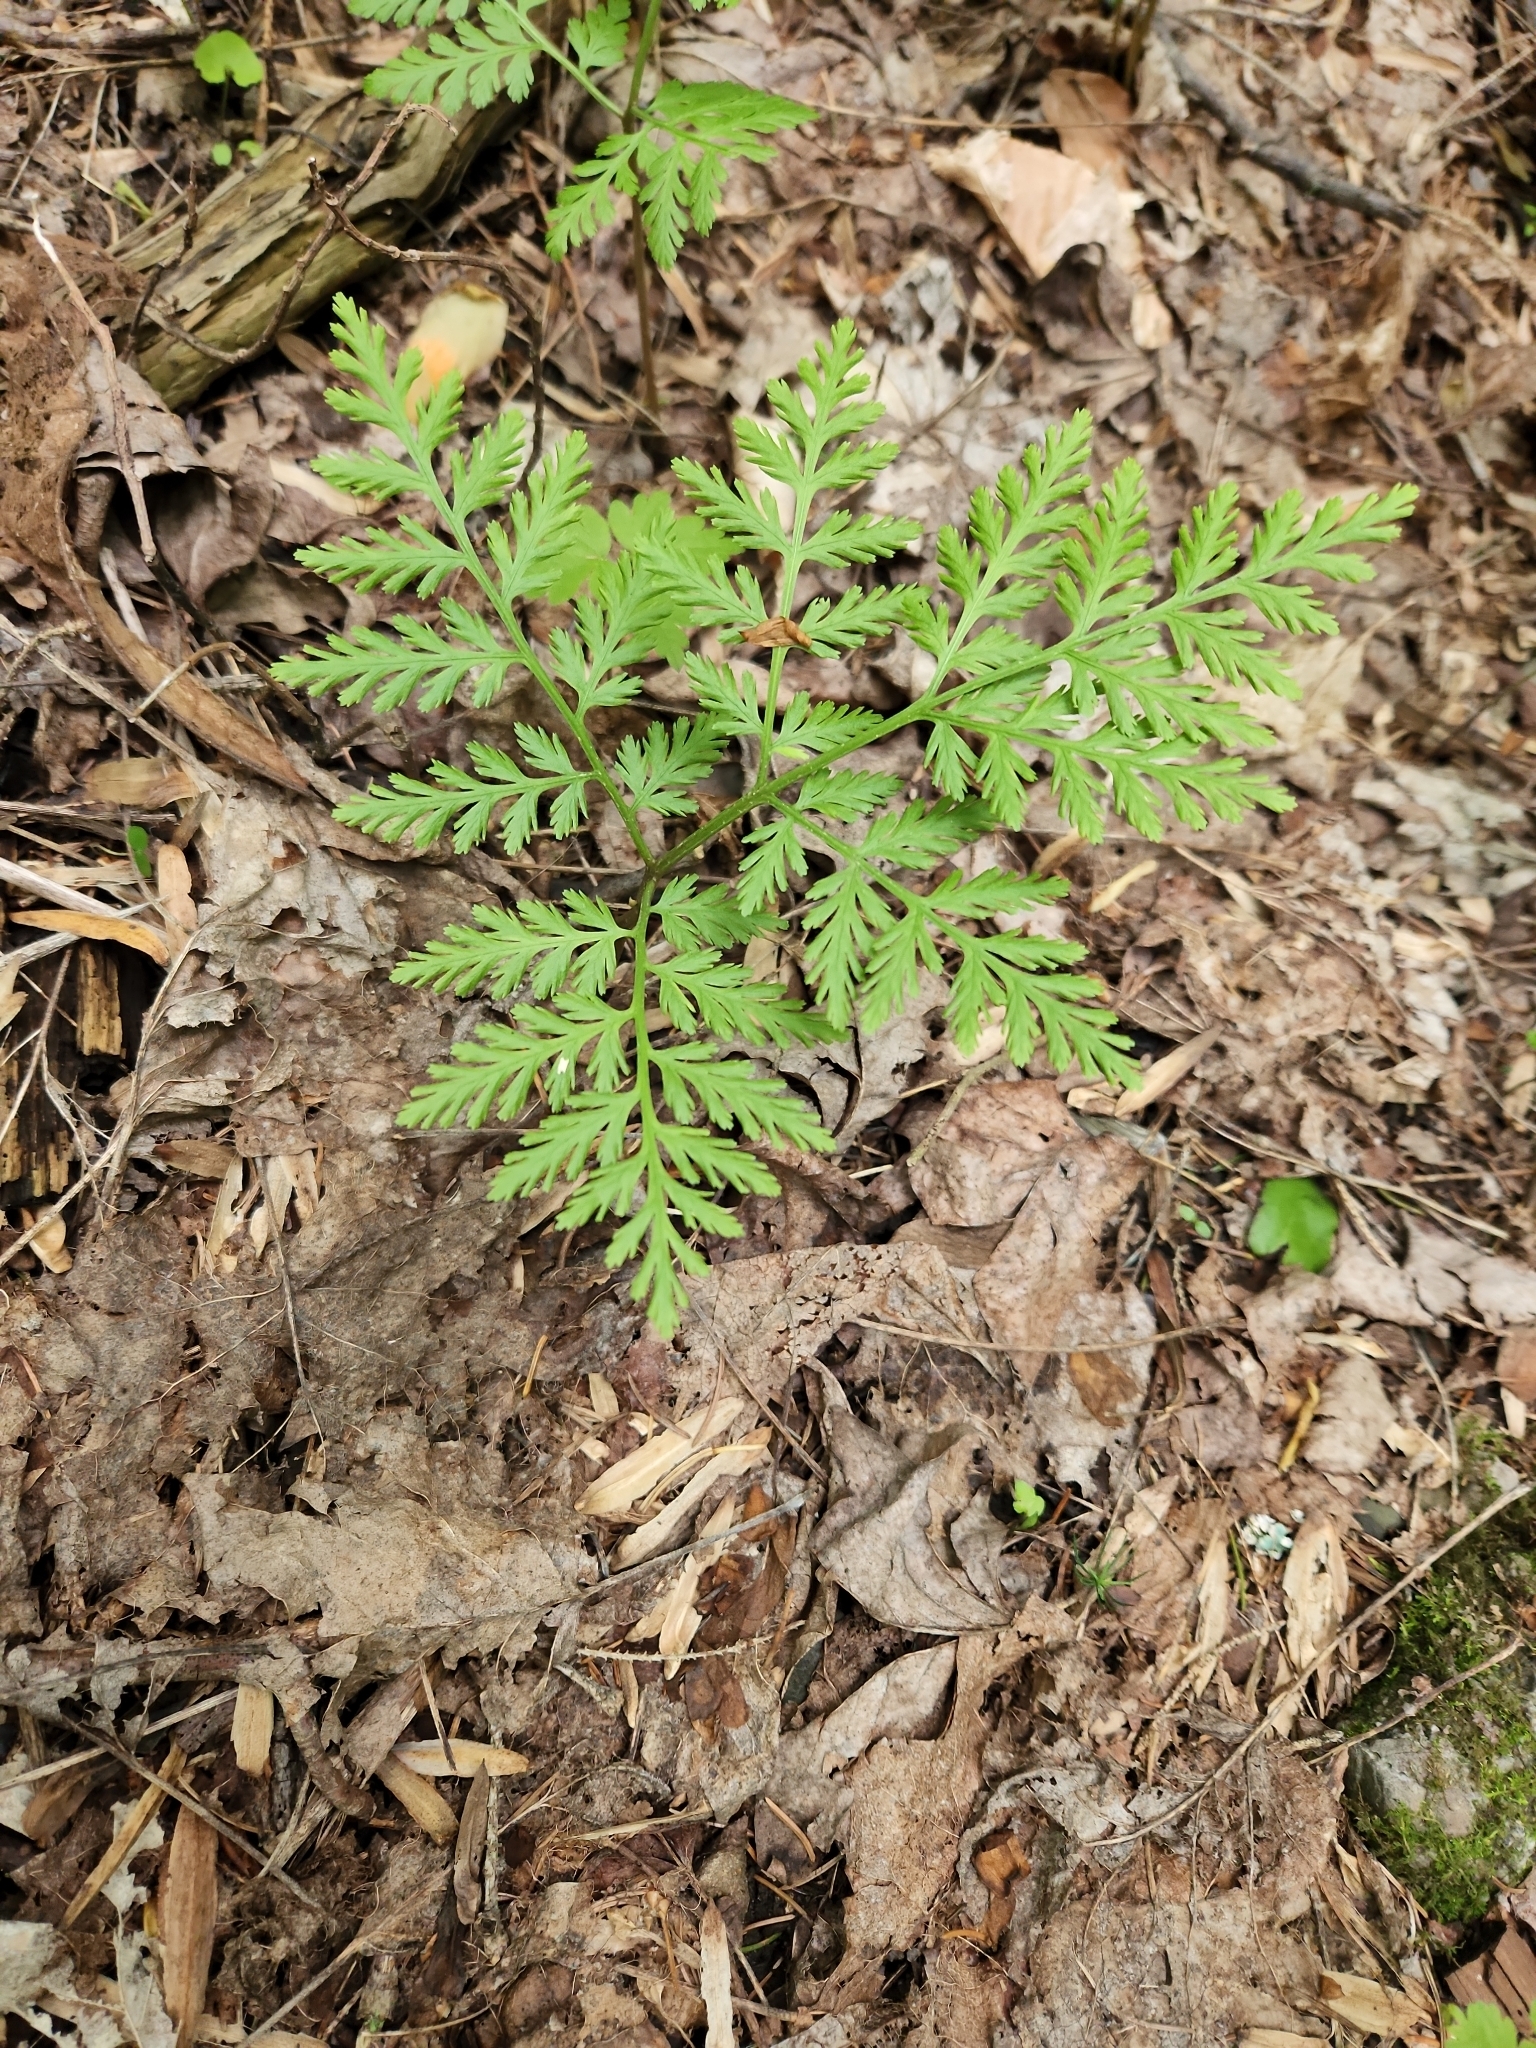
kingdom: Plantae
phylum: Tracheophyta
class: Polypodiopsida
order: Ophioglossales
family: Ophioglossaceae
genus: Botrypus
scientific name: Botrypus virginianus
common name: Common grapefern
